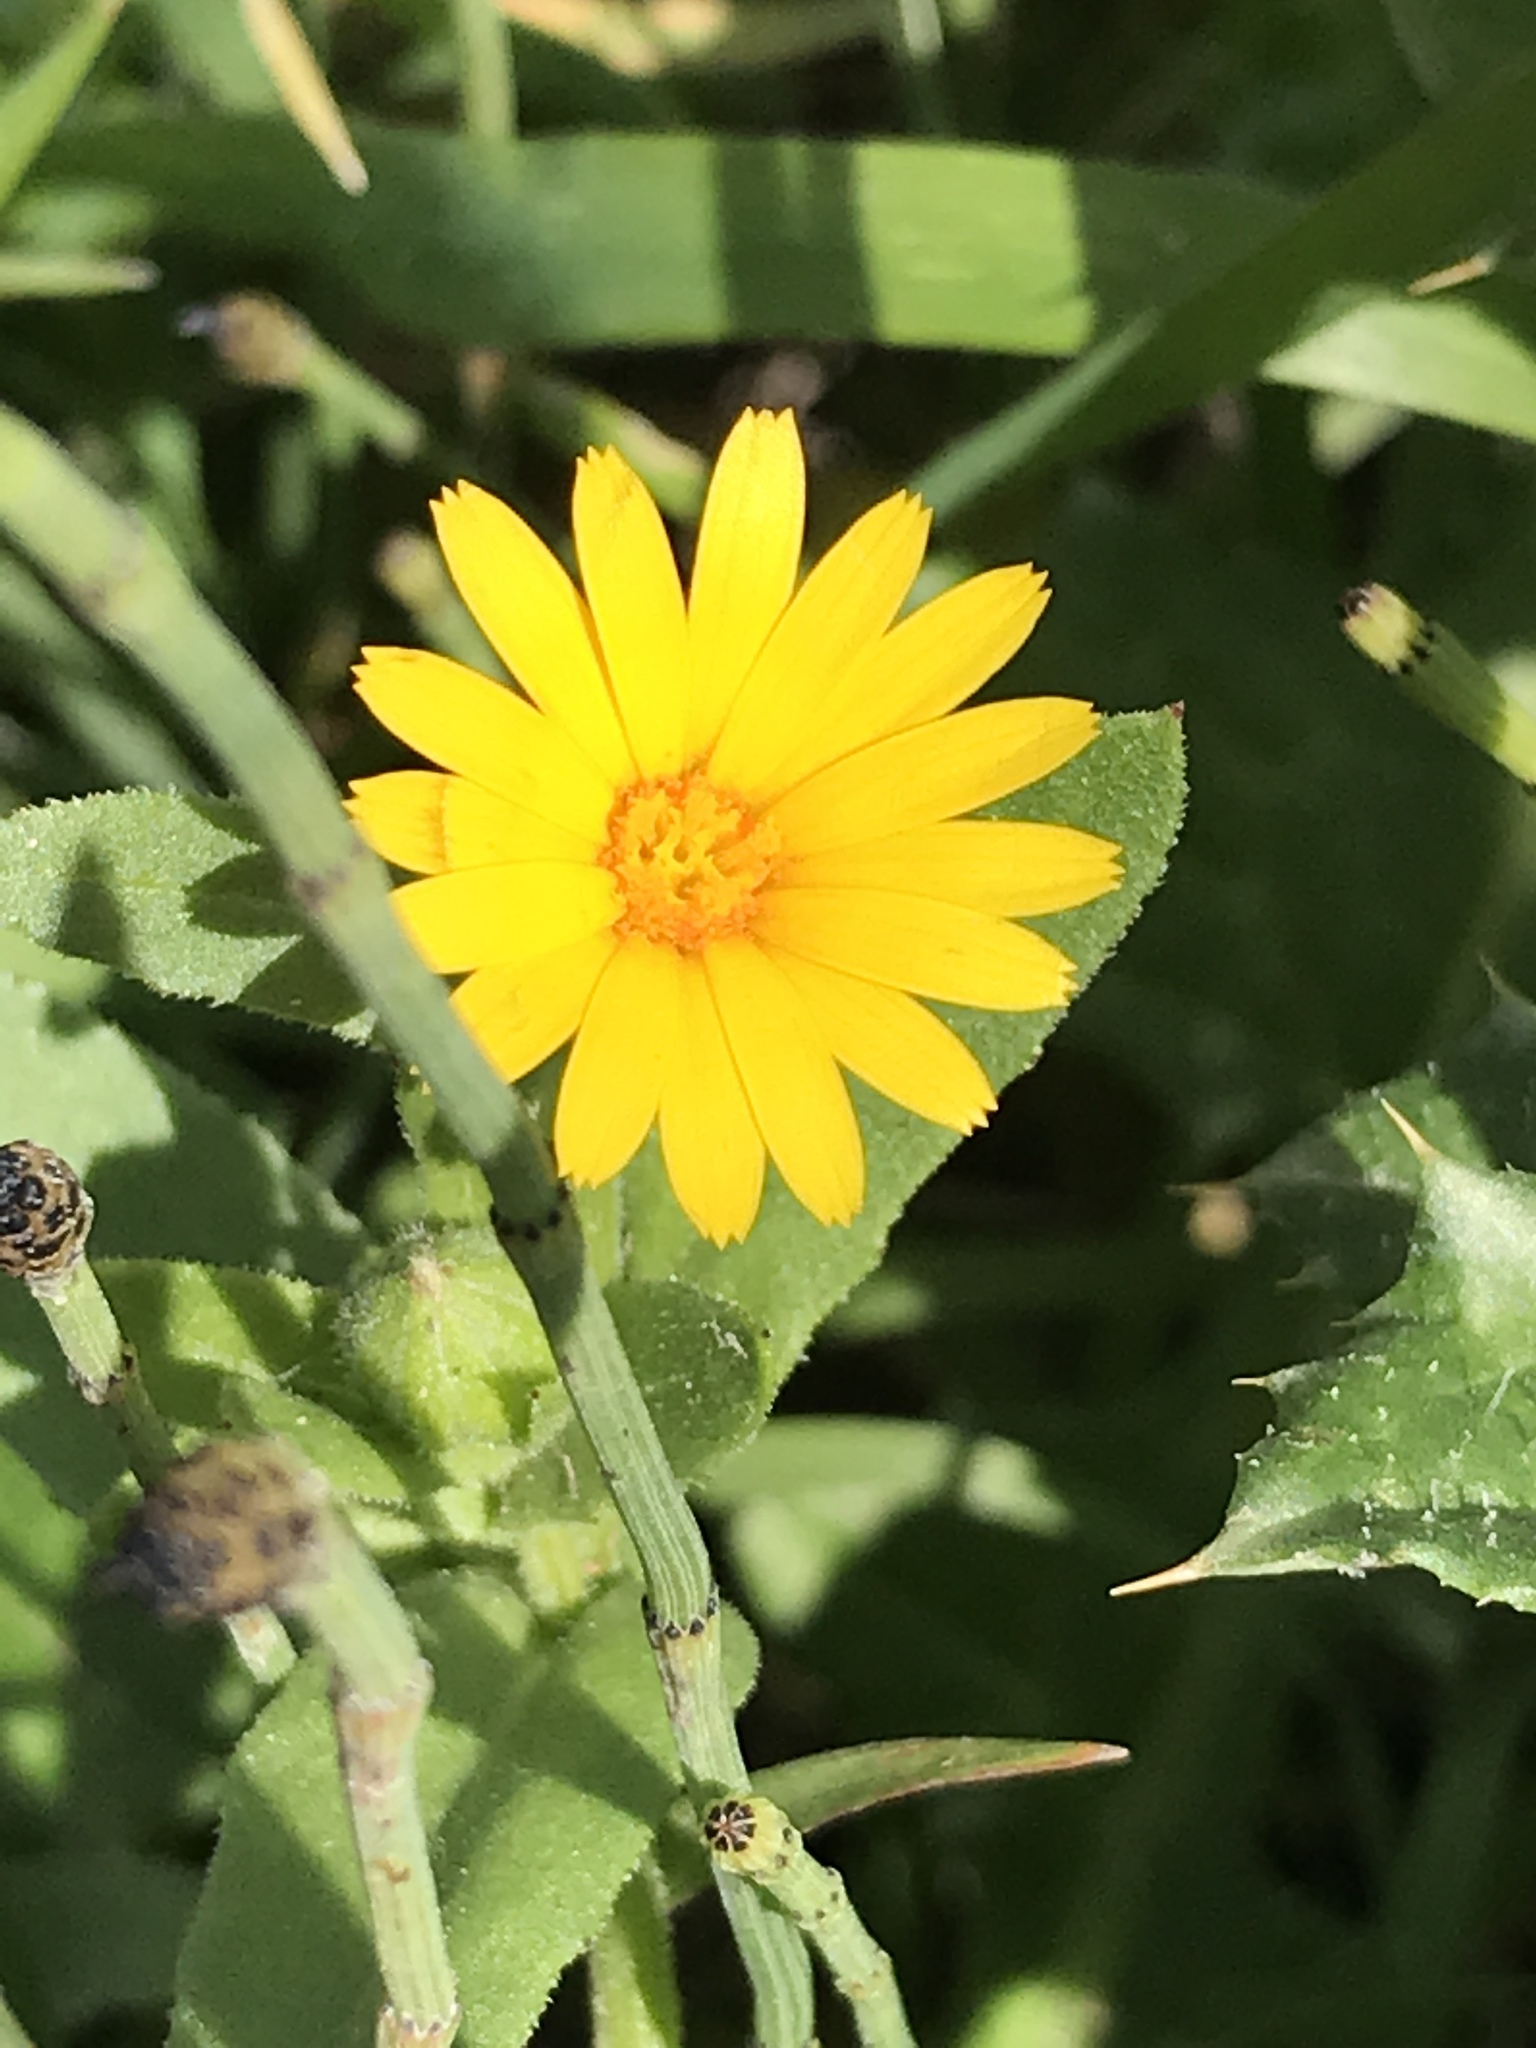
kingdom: Plantae
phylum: Tracheophyta
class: Magnoliopsida
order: Asterales
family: Asteraceae
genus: Calendula
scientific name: Calendula arvensis
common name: Field marigold
